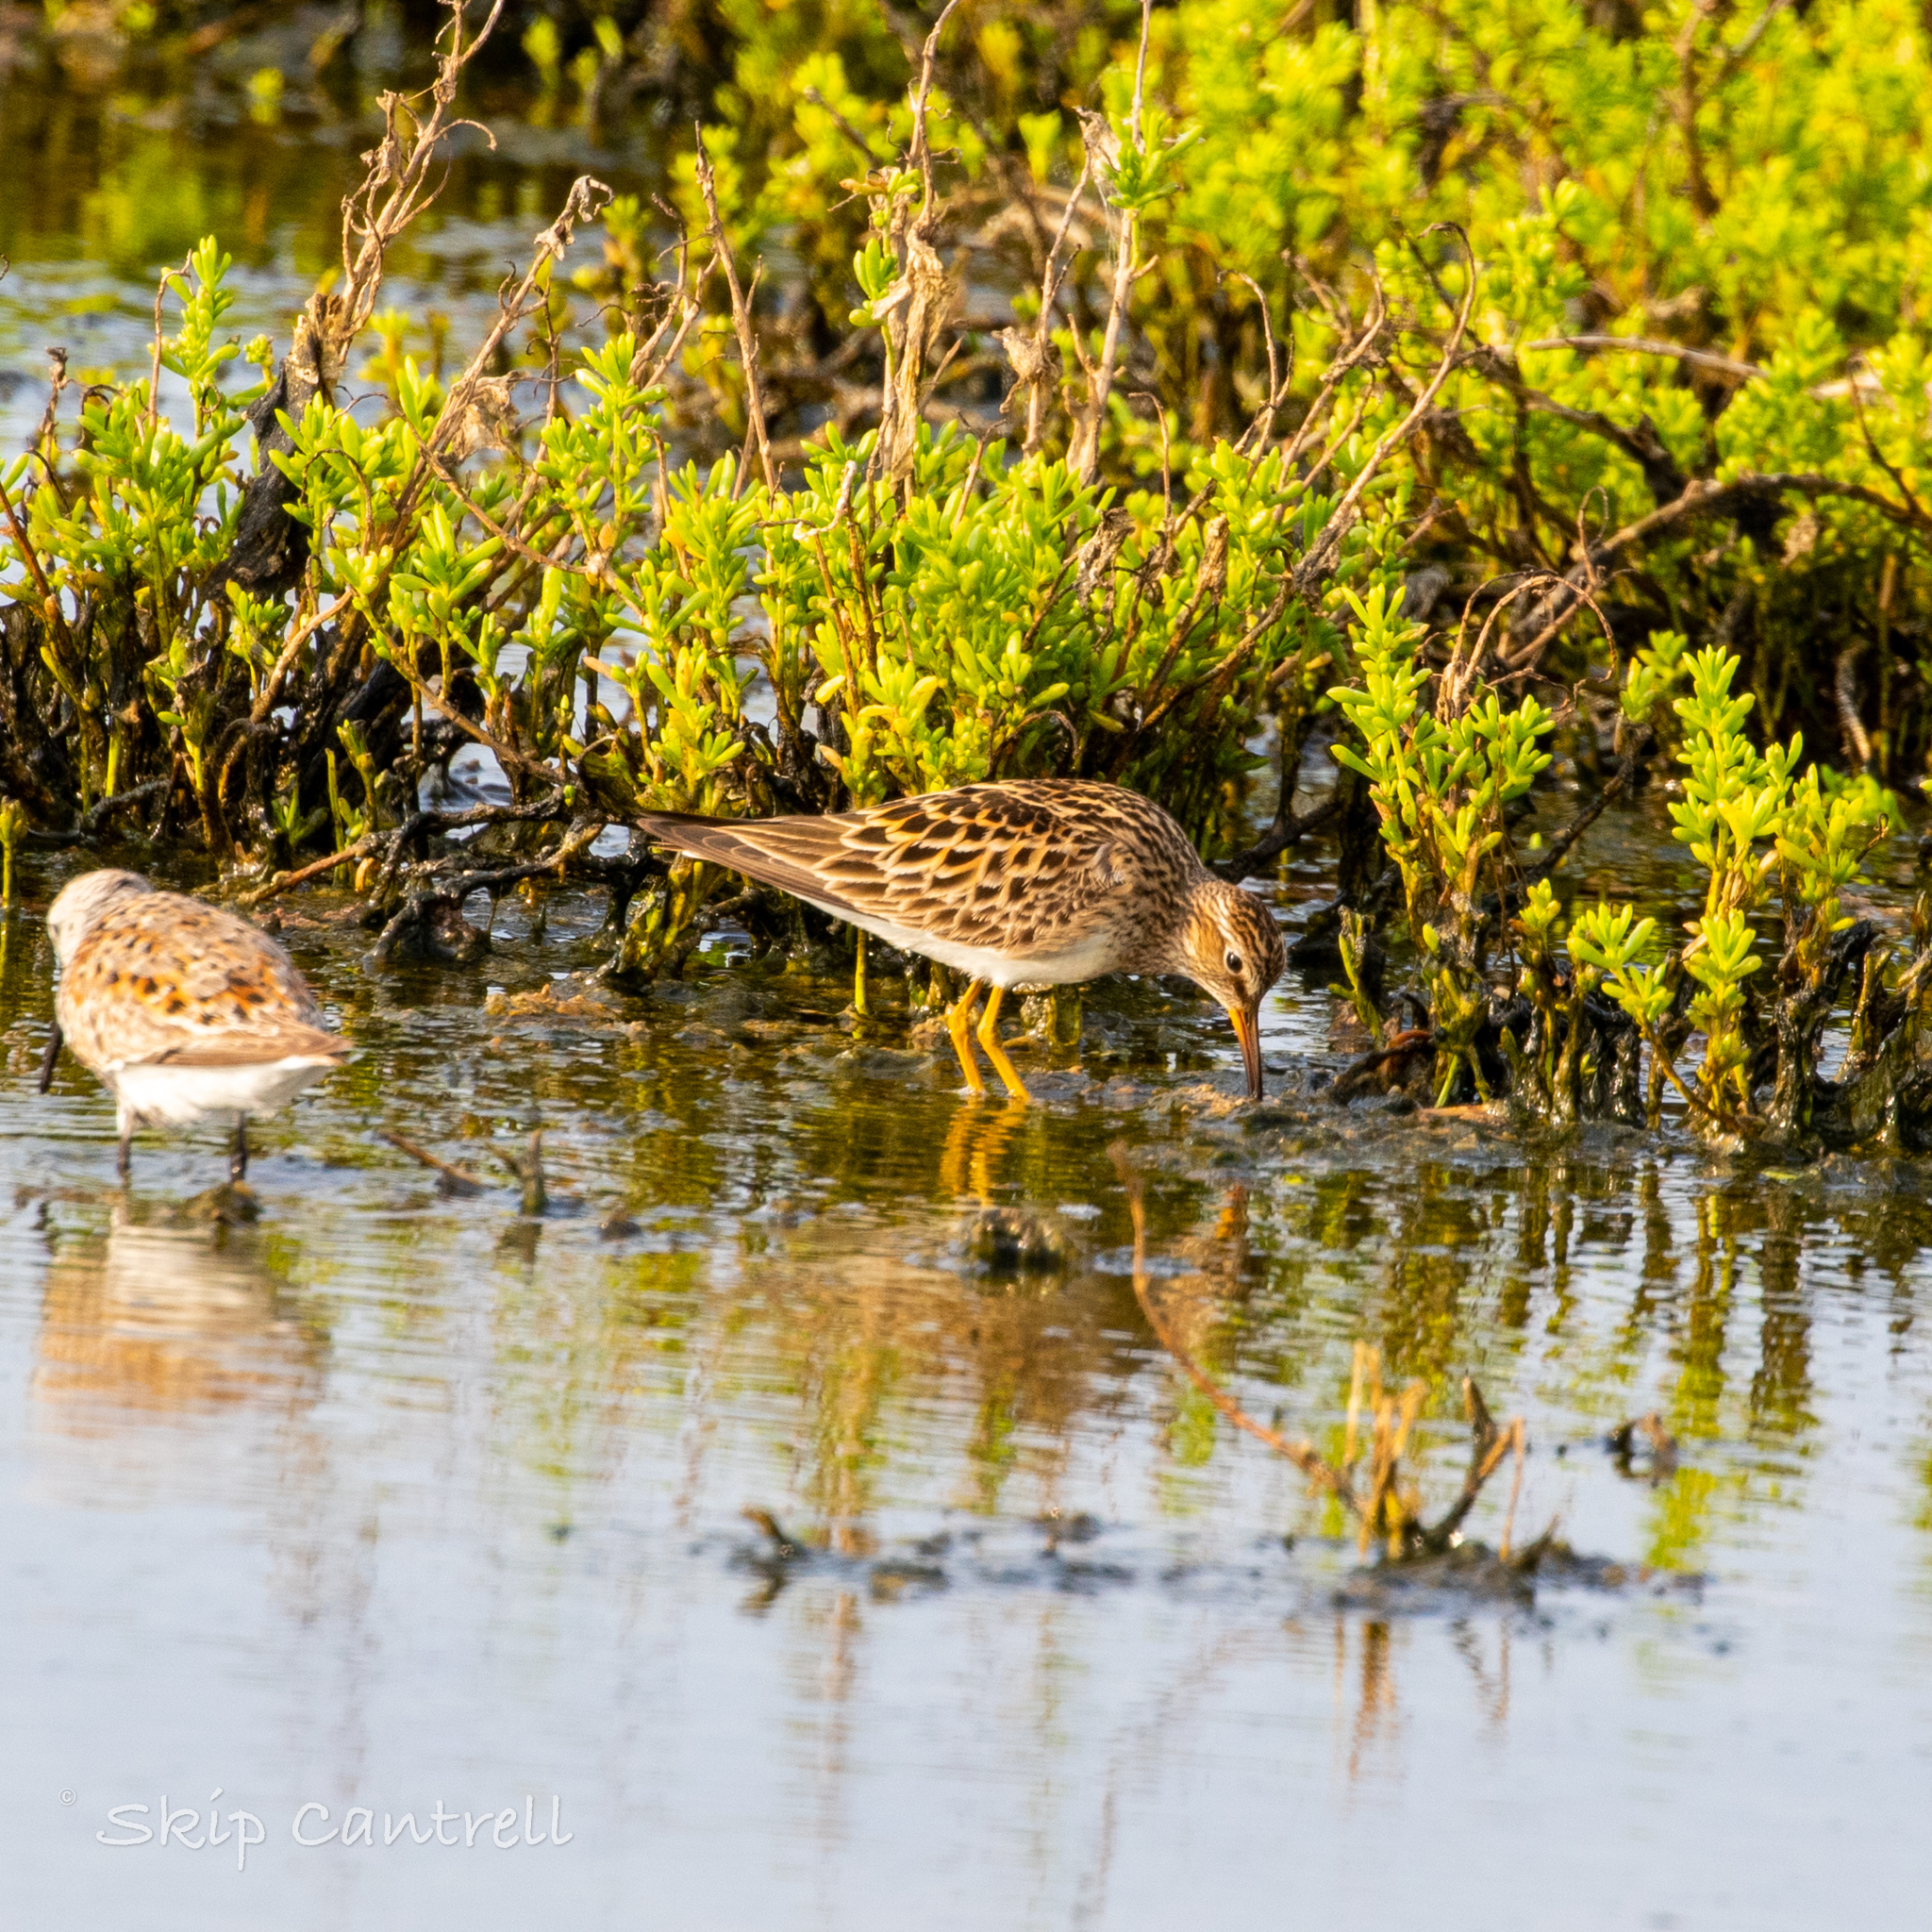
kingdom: Animalia
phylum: Chordata
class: Aves
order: Charadriiformes
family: Scolopacidae
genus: Calidris
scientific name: Calidris melanotos
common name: Pectoral sandpiper
